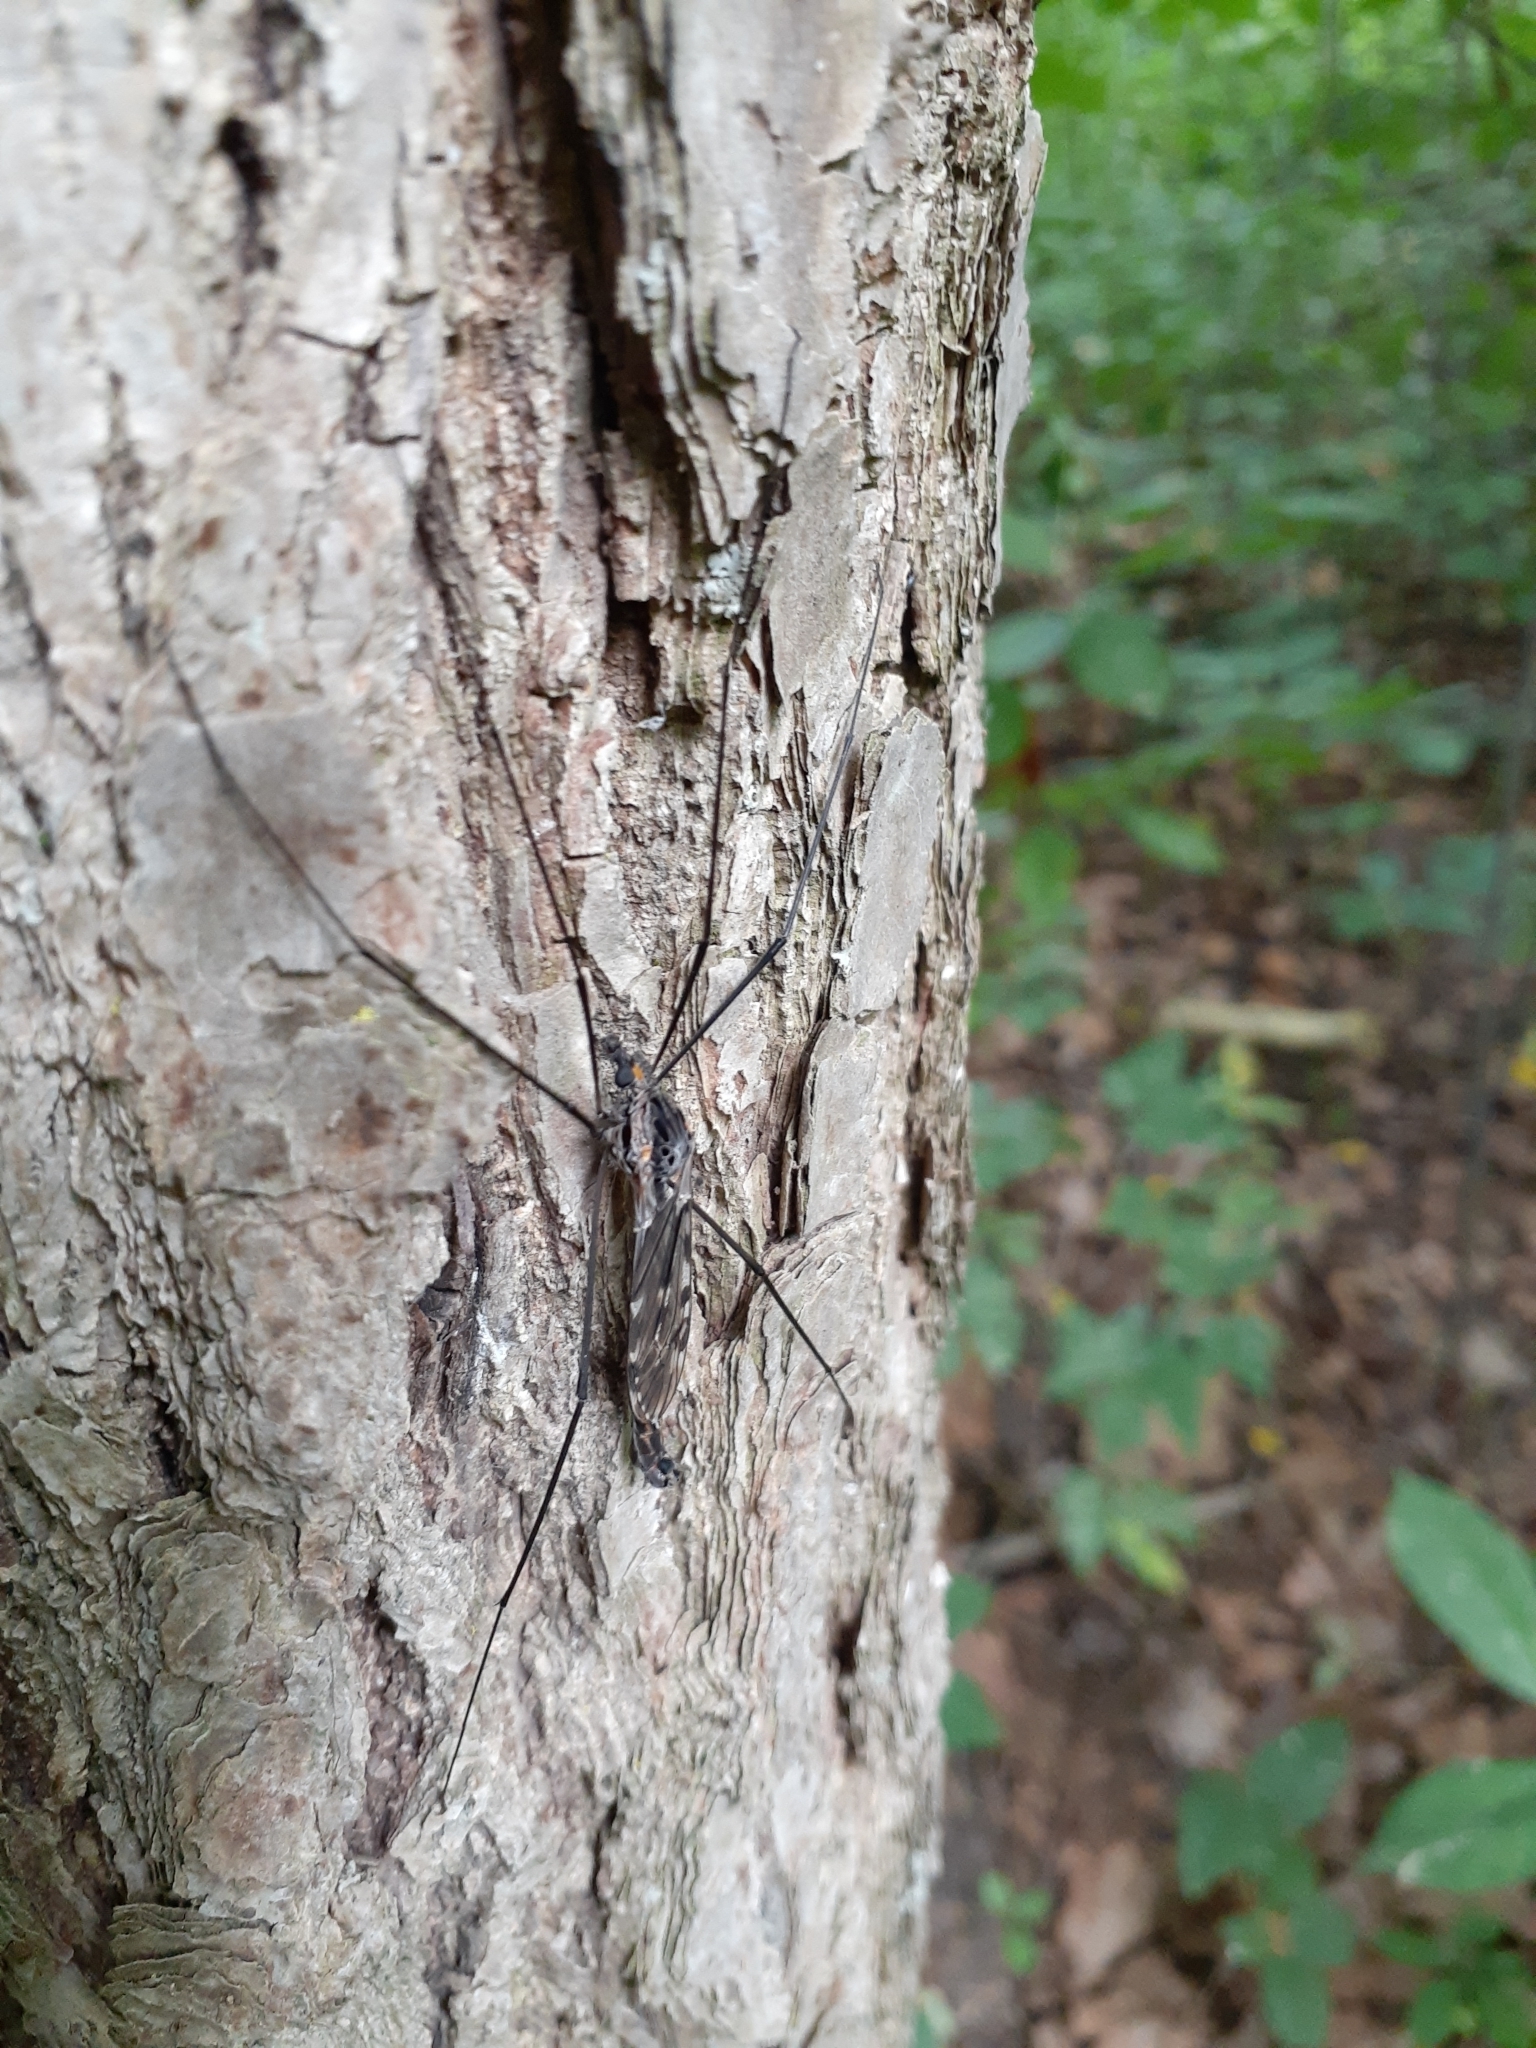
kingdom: Animalia
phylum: Arthropoda
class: Insecta
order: Diptera
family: Tipulidae
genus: Tipula
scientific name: Tipula metacomet
